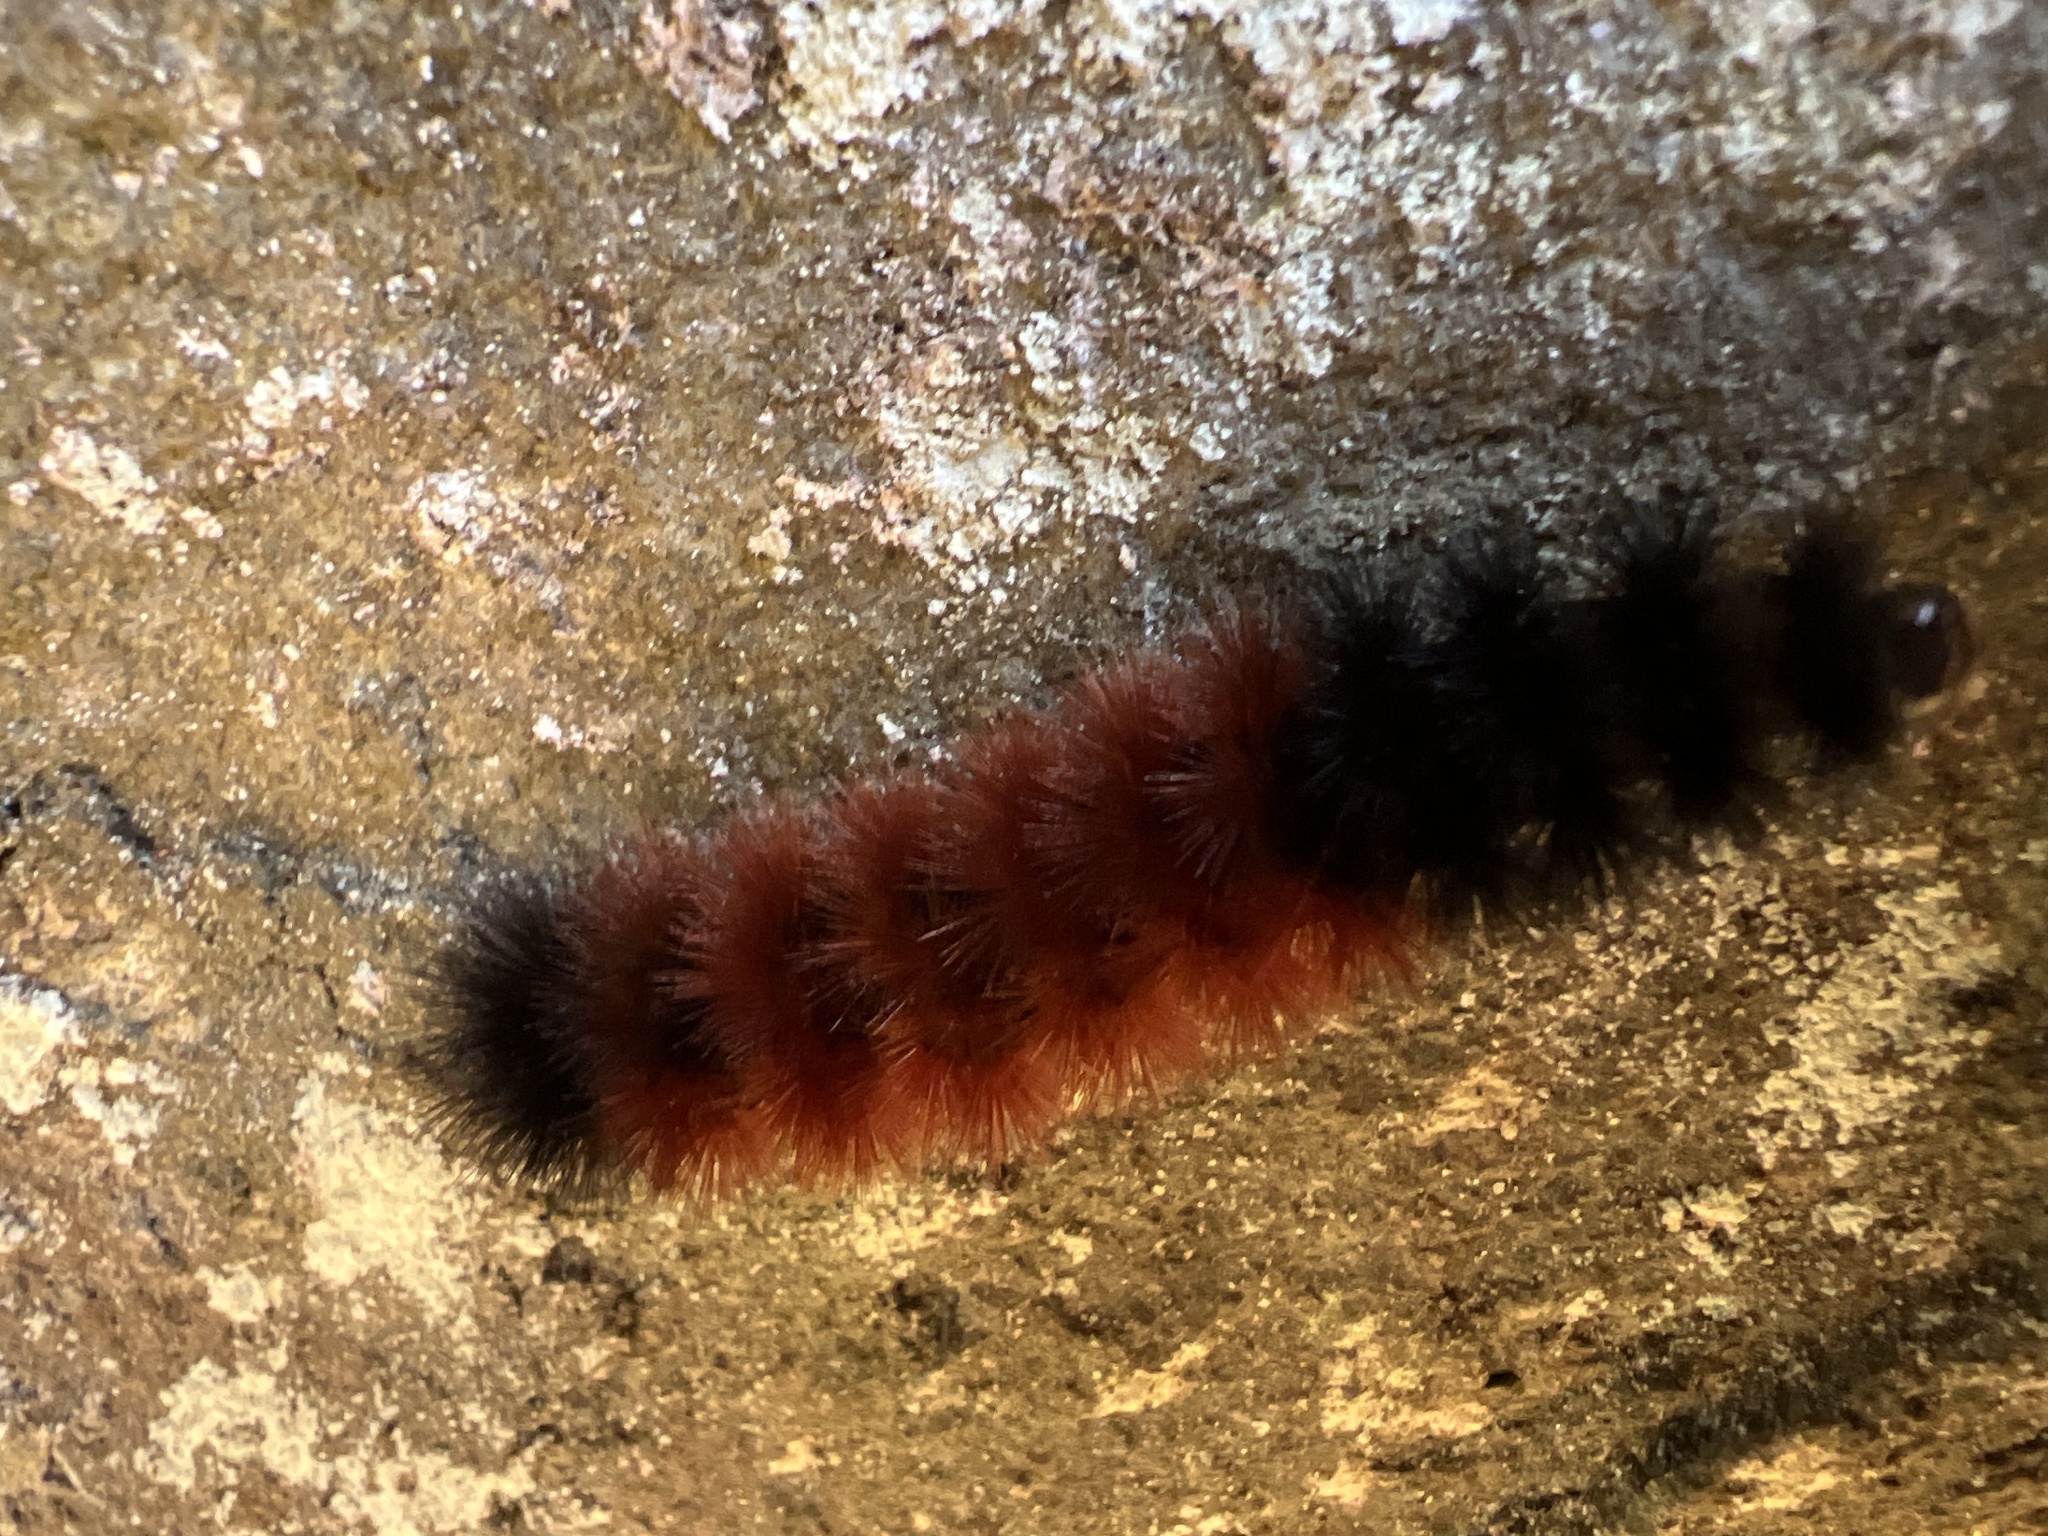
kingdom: Animalia
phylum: Arthropoda
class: Insecta
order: Lepidoptera
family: Erebidae
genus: Pyrrharctia
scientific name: Pyrrharctia isabella
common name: Isabella tiger moth
